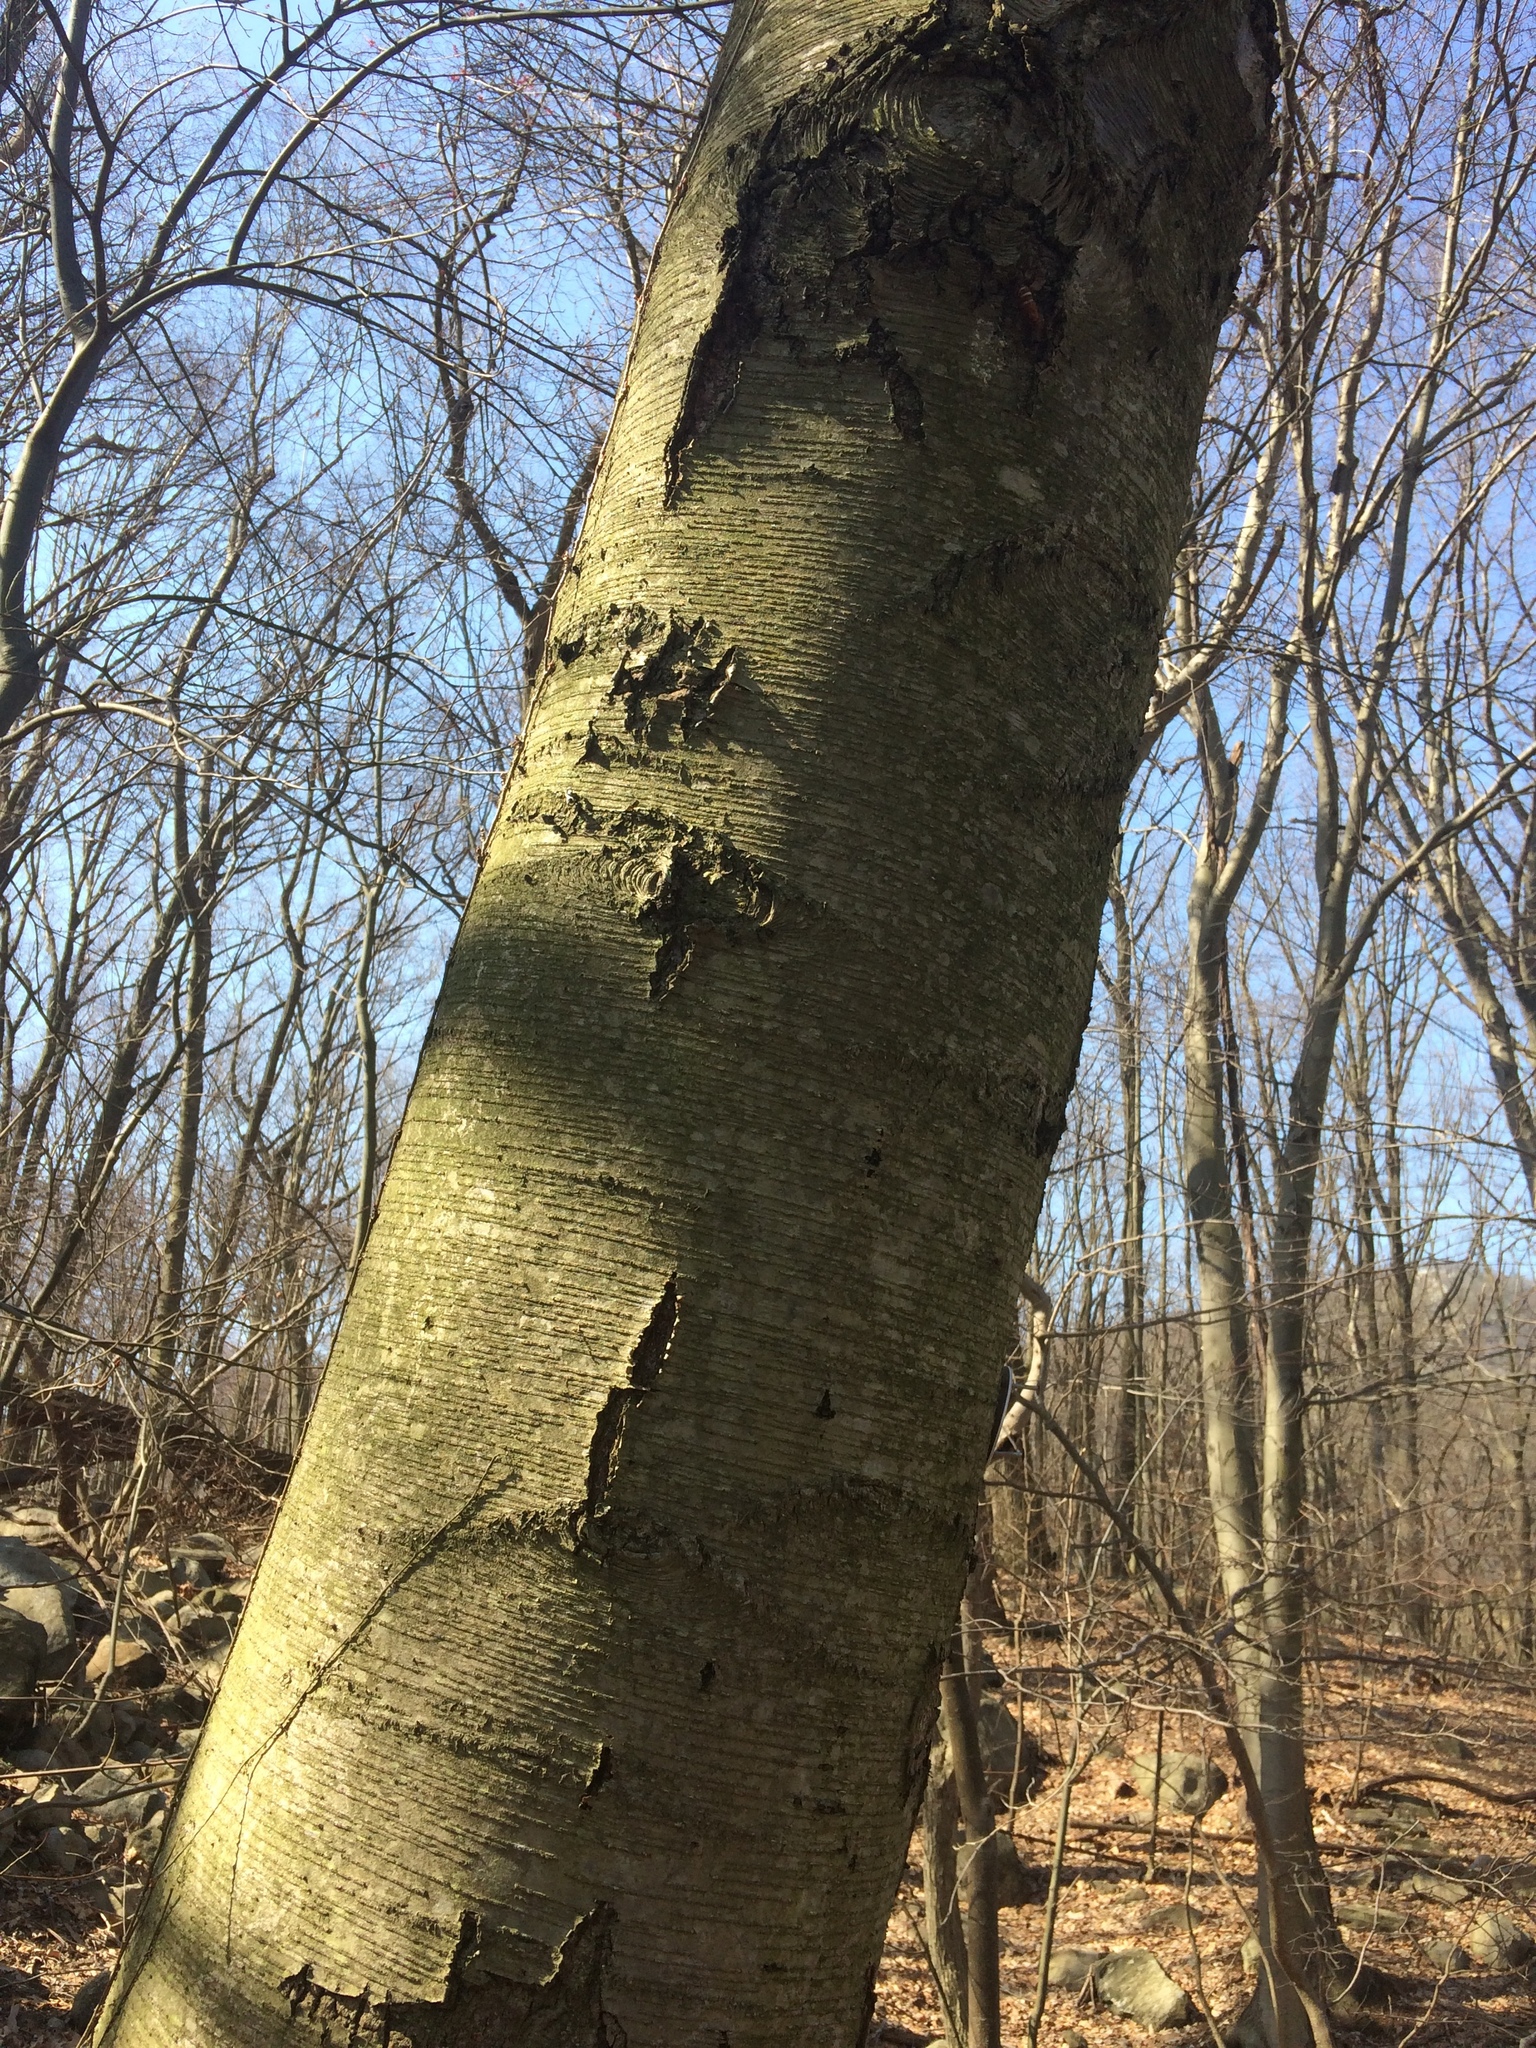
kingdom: Plantae
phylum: Tracheophyta
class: Magnoliopsida
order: Fagales
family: Betulaceae
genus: Betula
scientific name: Betula lenta
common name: Black birch
